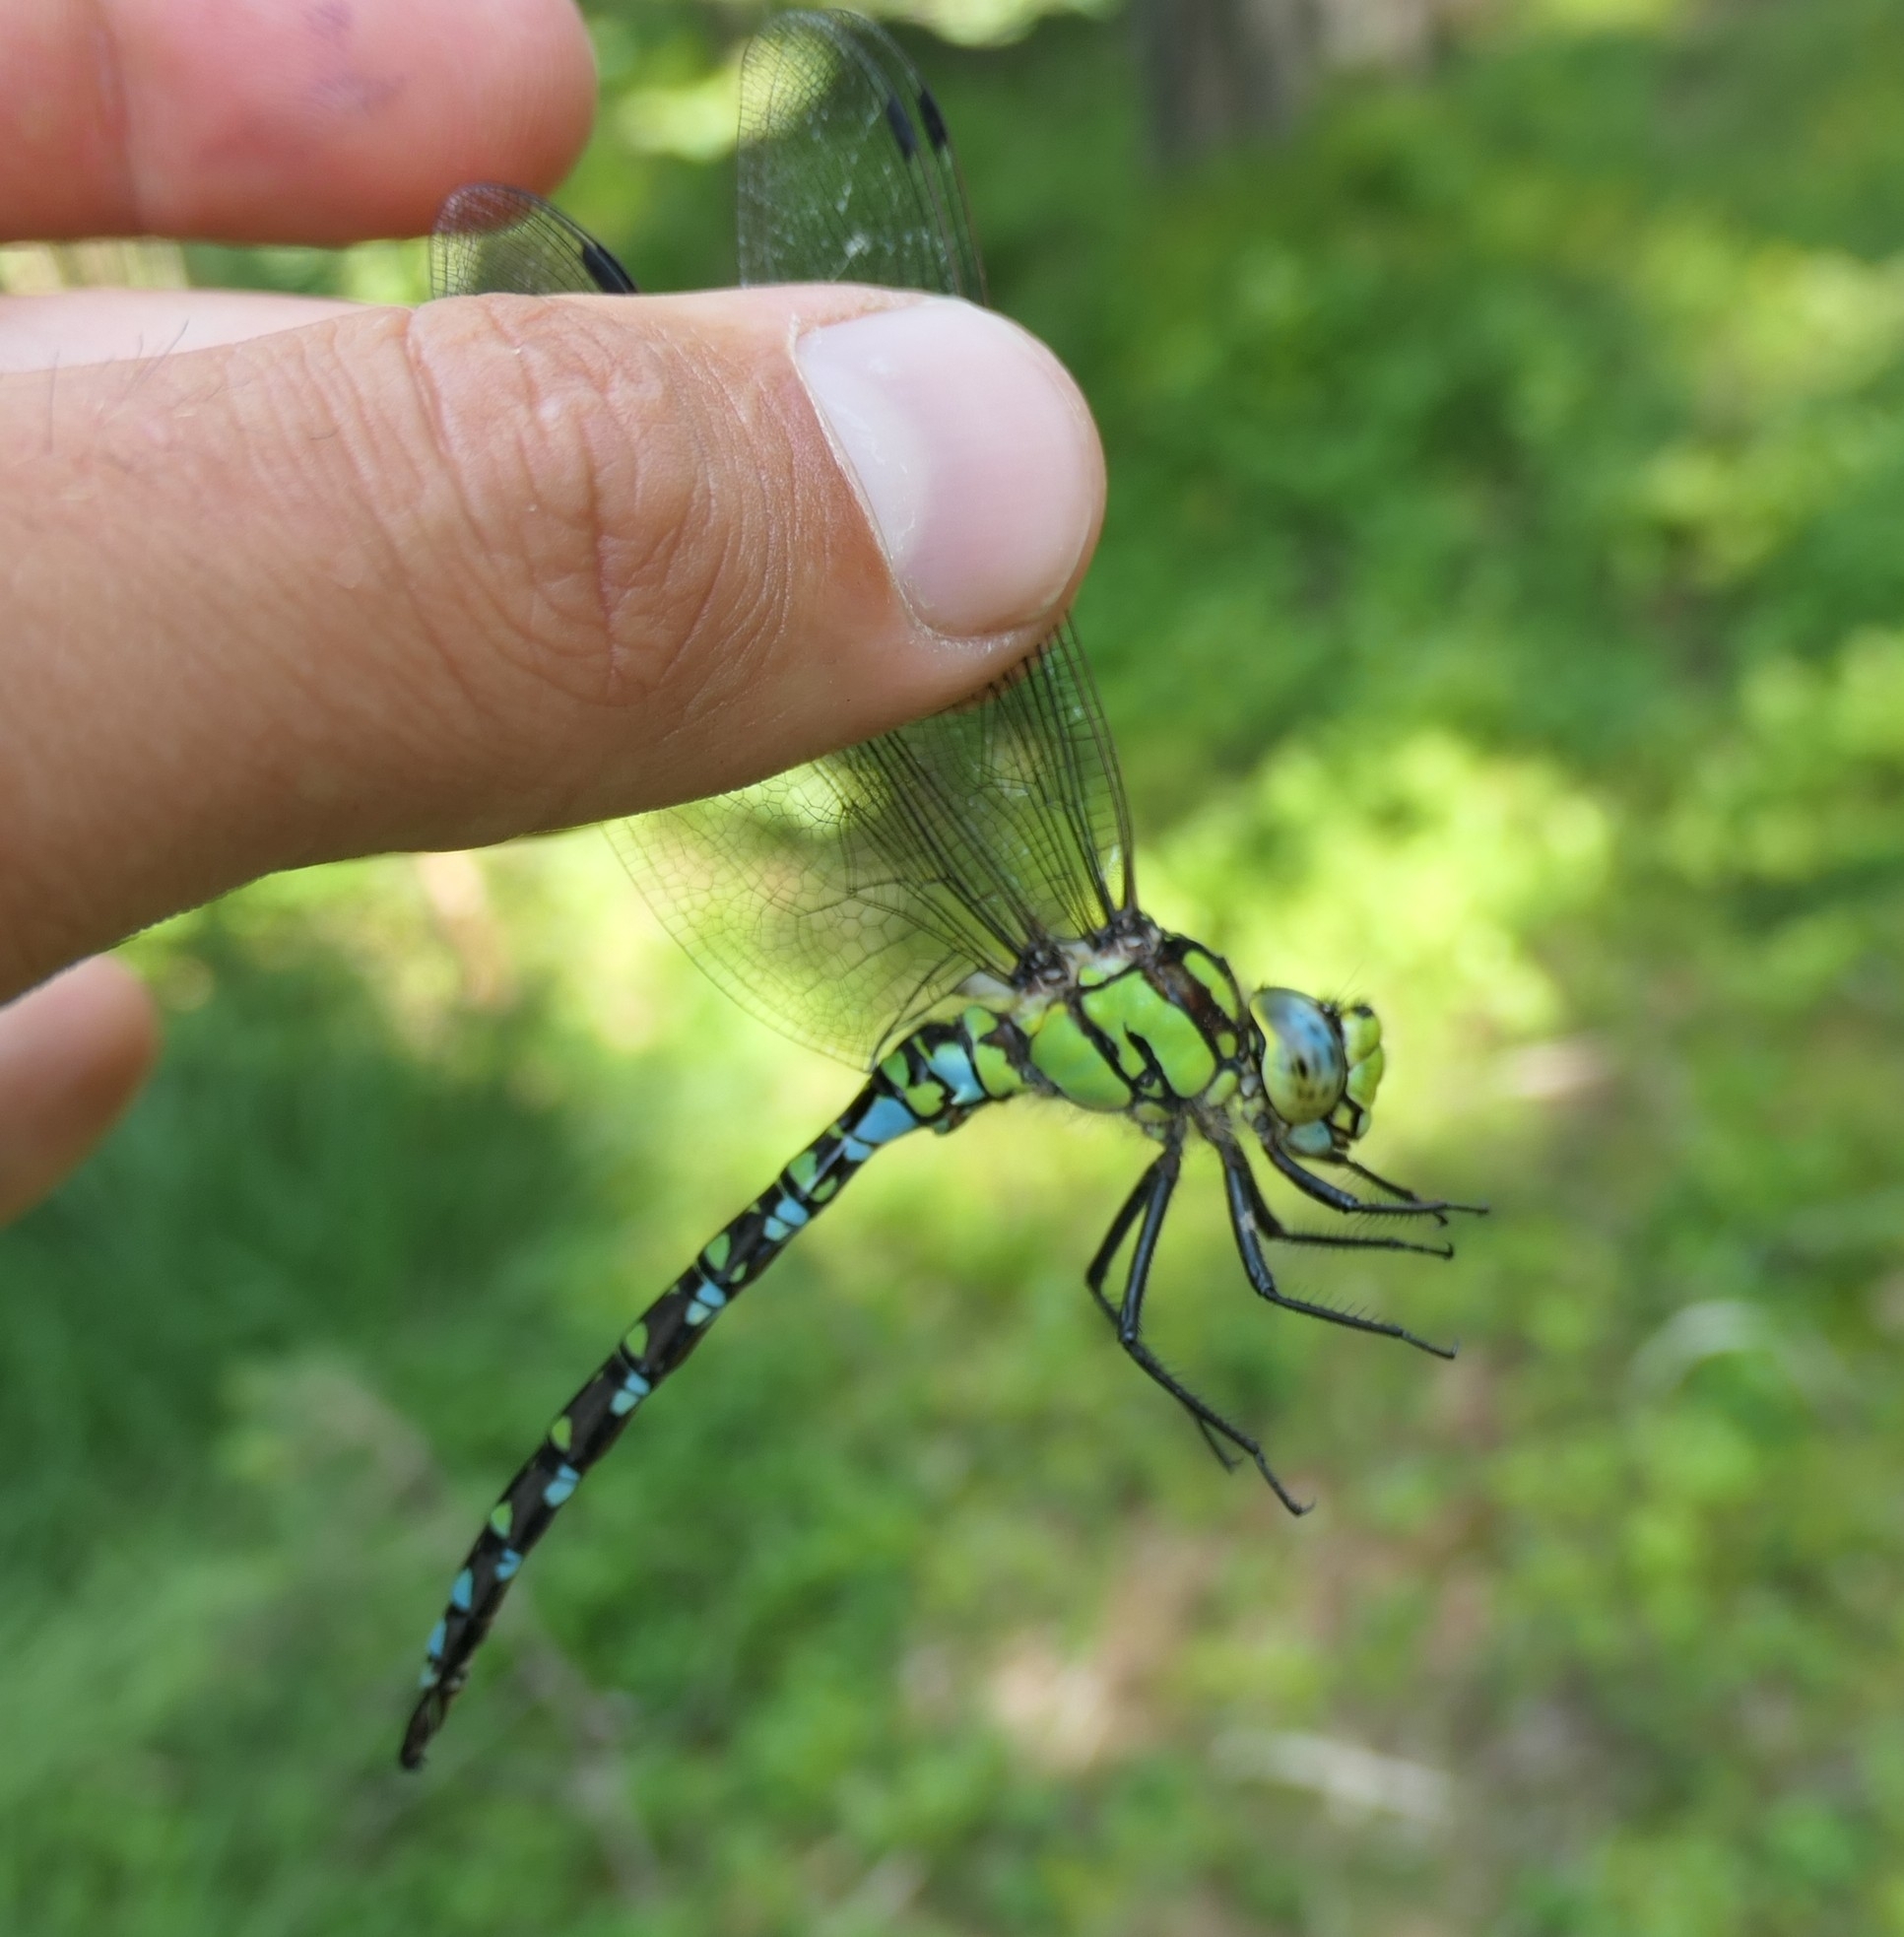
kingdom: Animalia
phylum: Arthropoda
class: Insecta
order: Odonata
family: Aeshnidae
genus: Aeshna
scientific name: Aeshna cyanea
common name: Southern hawker
